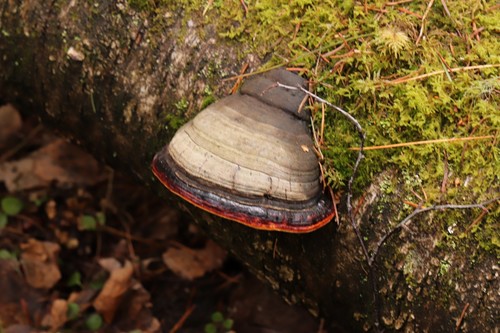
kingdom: Fungi
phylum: Basidiomycota
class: Agaricomycetes
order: Polyporales
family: Fomitopsidaceae
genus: Fomitopsis
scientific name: Fomitopsis pinicola
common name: Red-belted bracket
